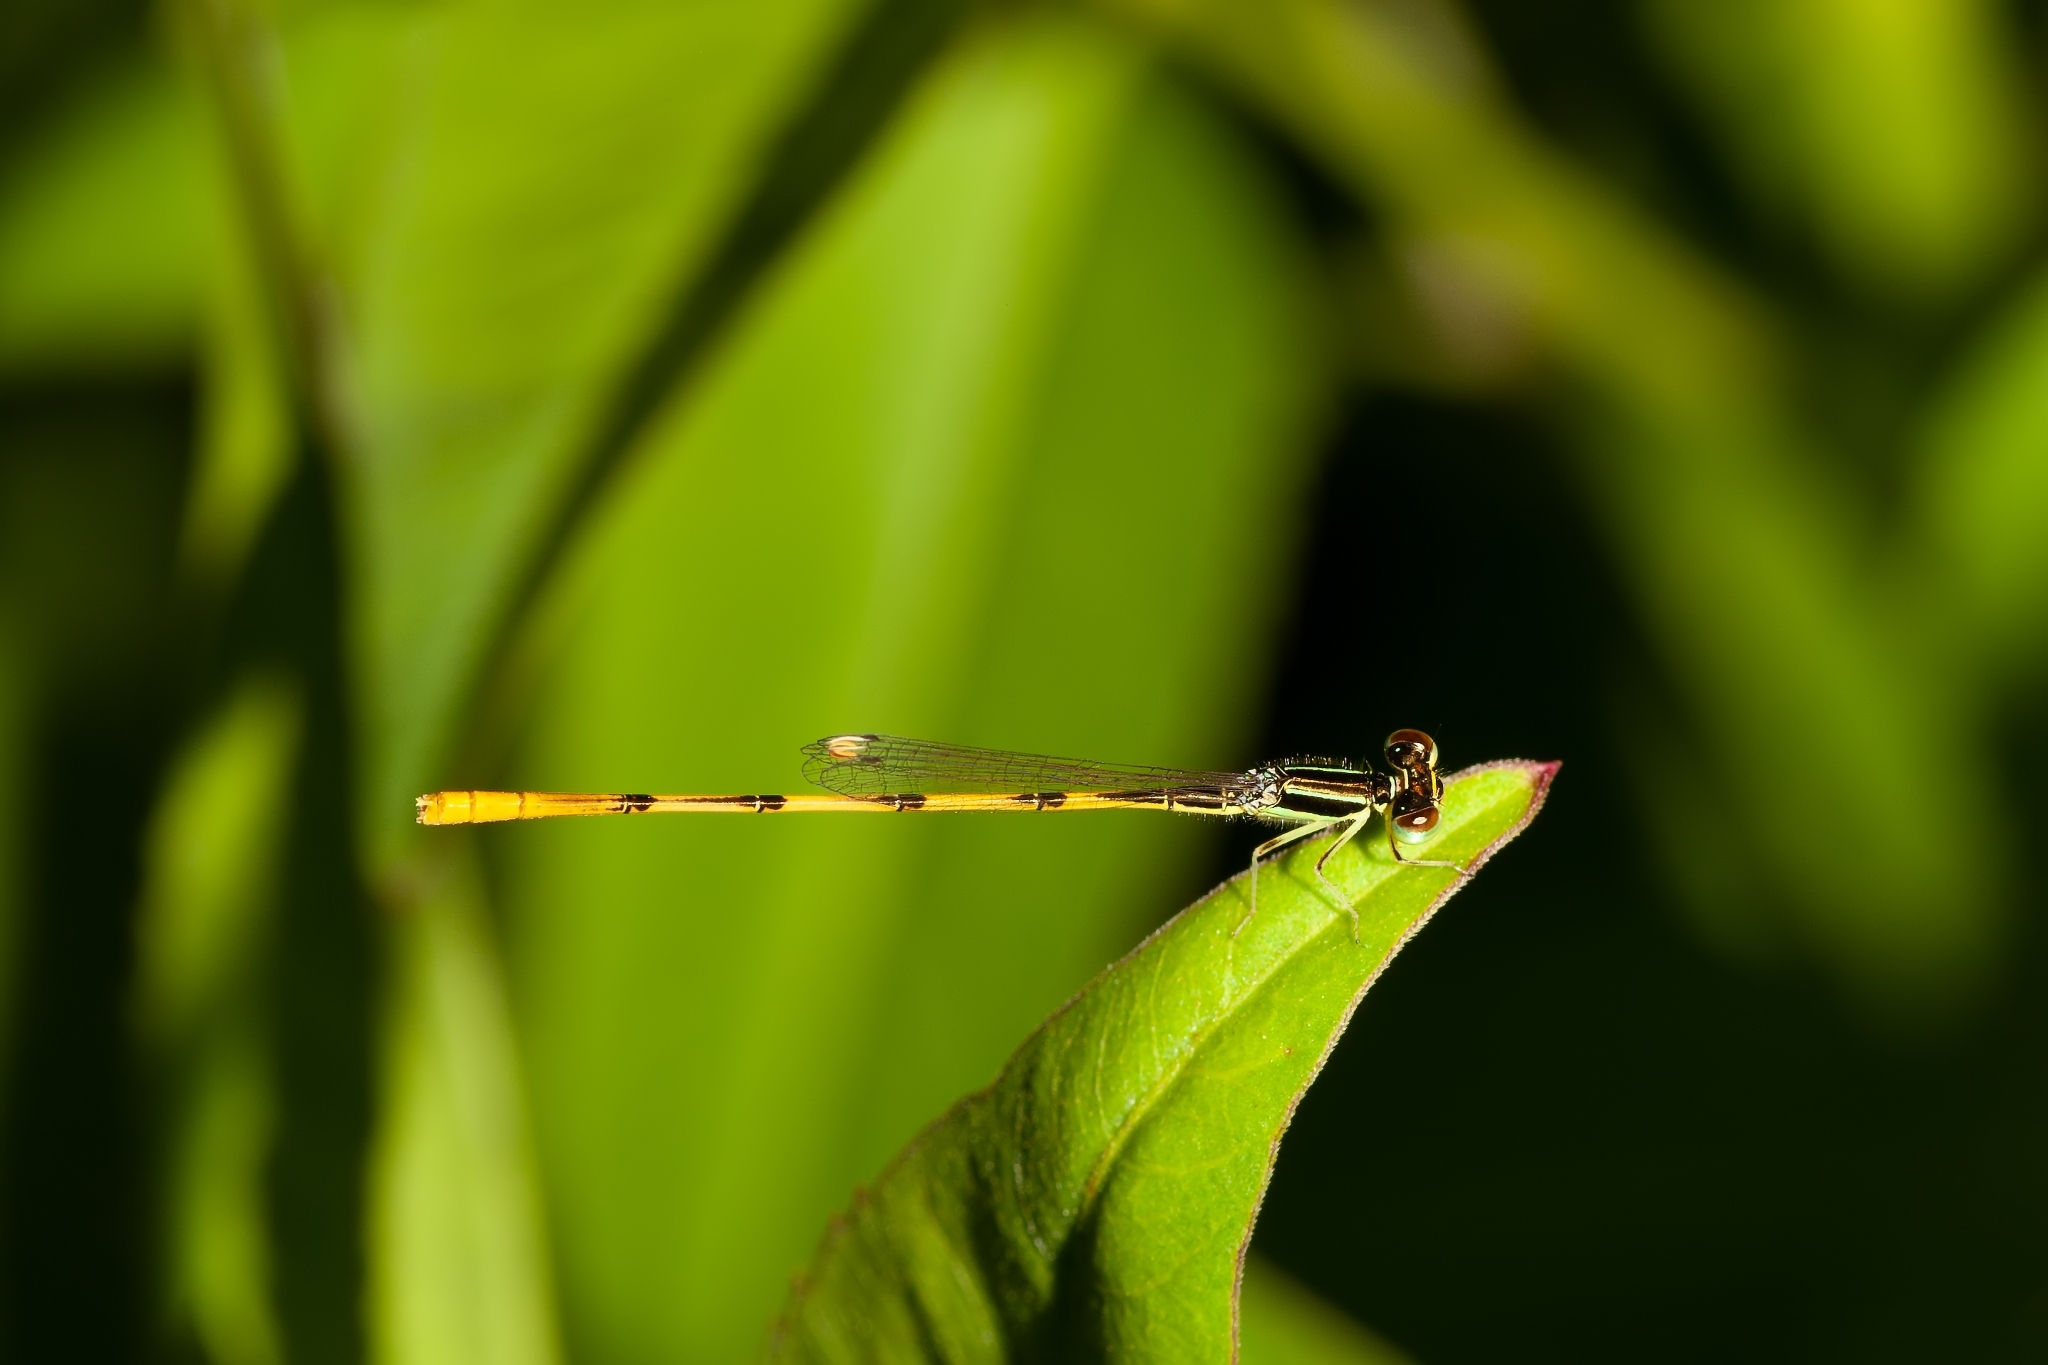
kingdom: Animalia
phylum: Arthropoda
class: Insecta
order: Odonata
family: Coenagrionidae
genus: Ischnura
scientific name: Ischnura hastata
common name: Citrine forktail
